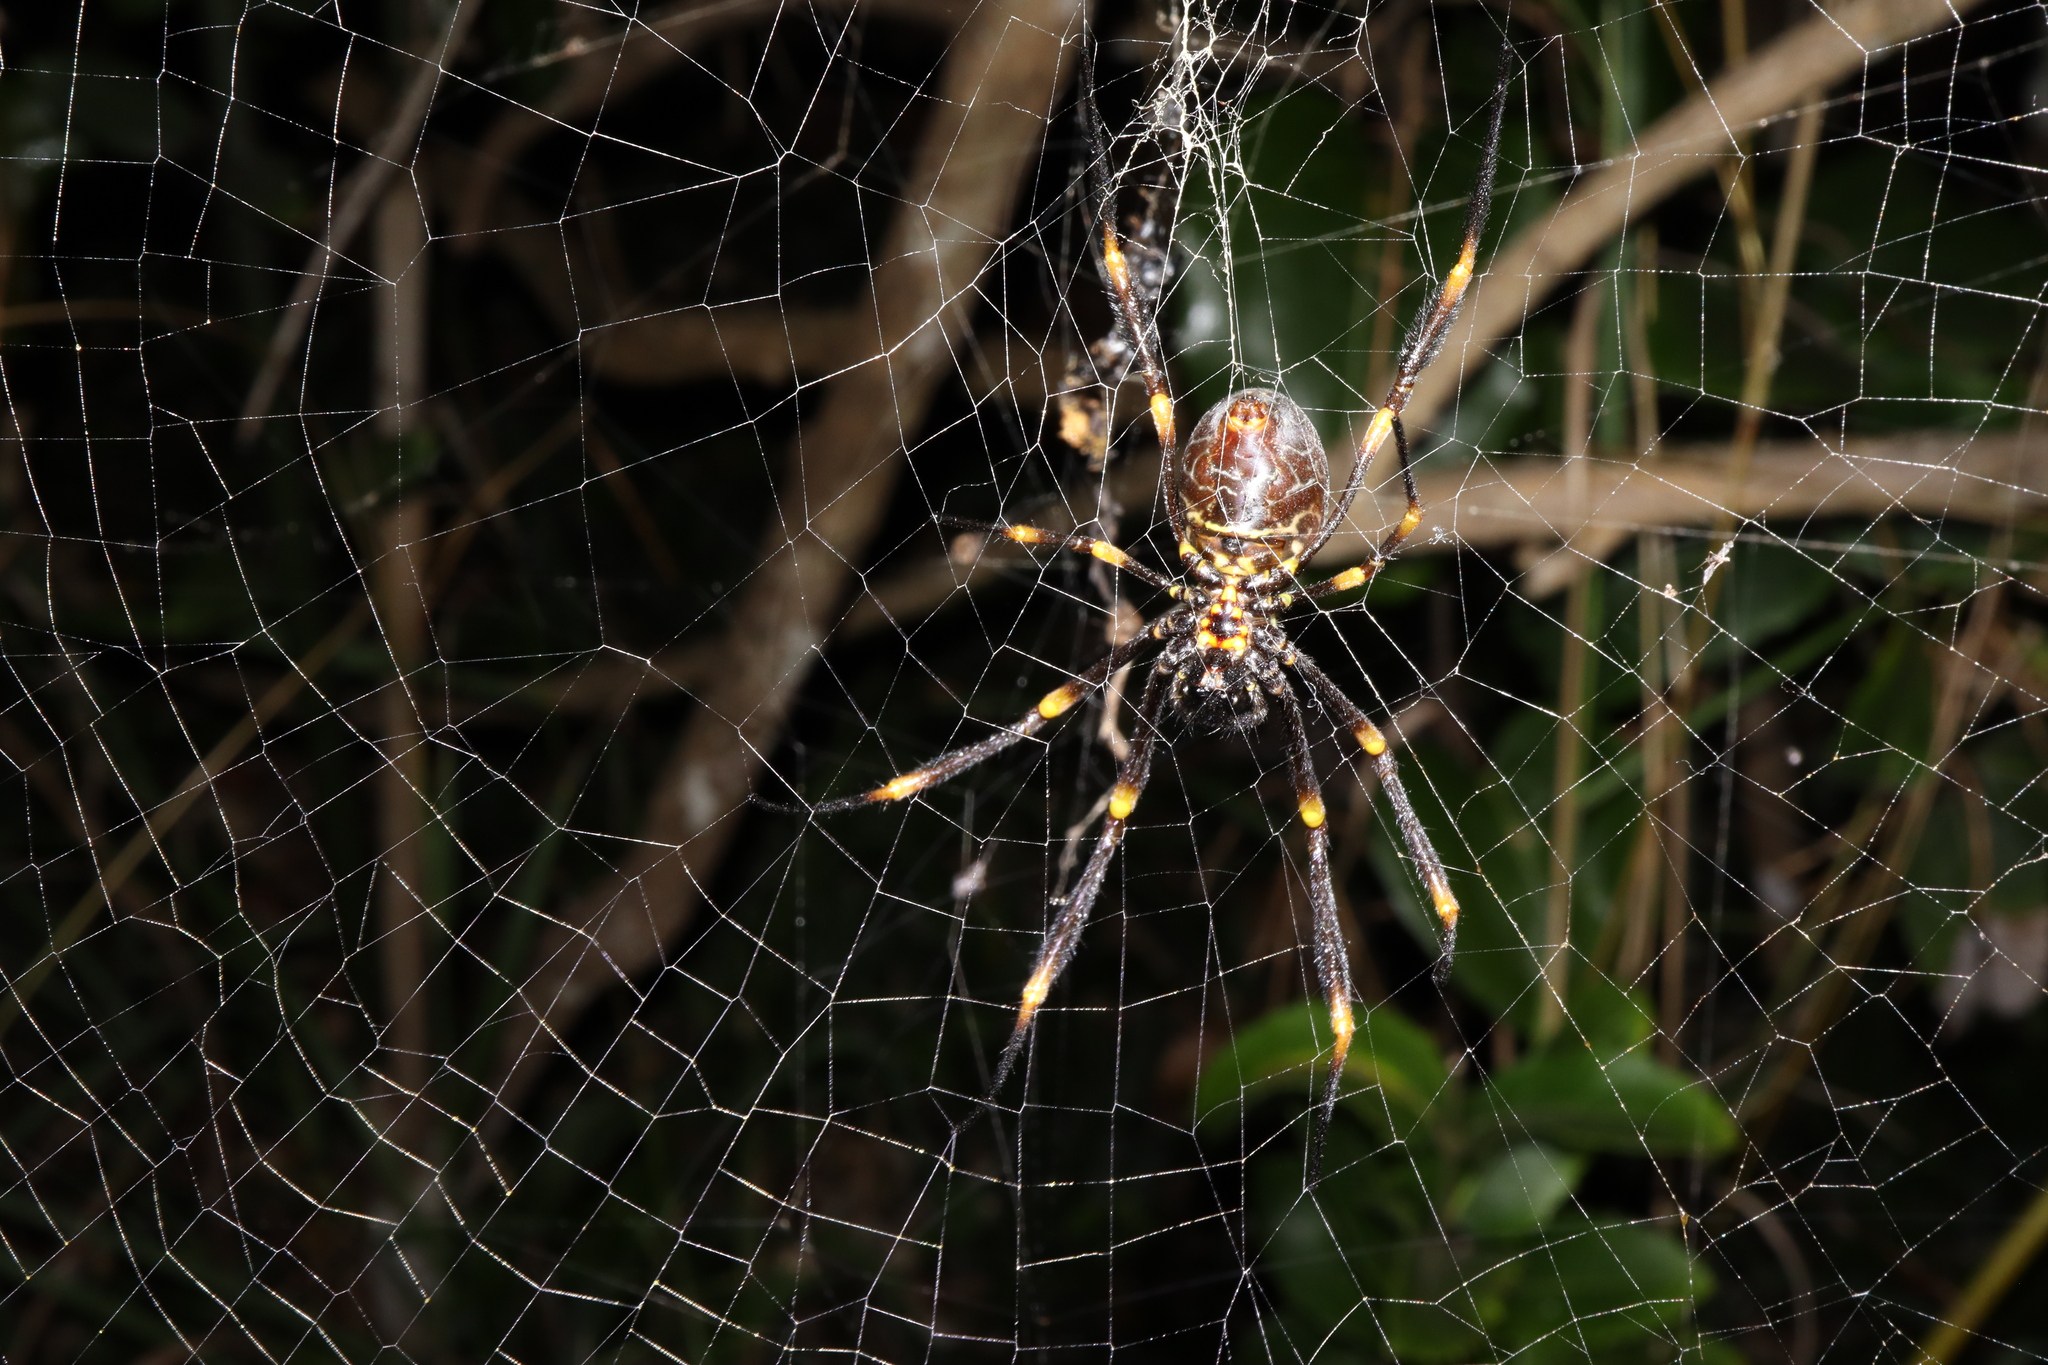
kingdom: Animalia
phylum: Arthropoda
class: Arachnida
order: Araneae
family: Araneidae
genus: Trichonephila
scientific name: Trichonephila plumipes
